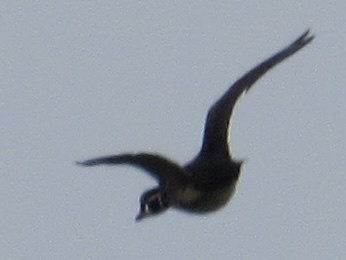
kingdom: Animalia
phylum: Chordata
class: Aves
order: Anseriformes
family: Anatidae
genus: Aix
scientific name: Aix sponsa
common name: Wood duck
